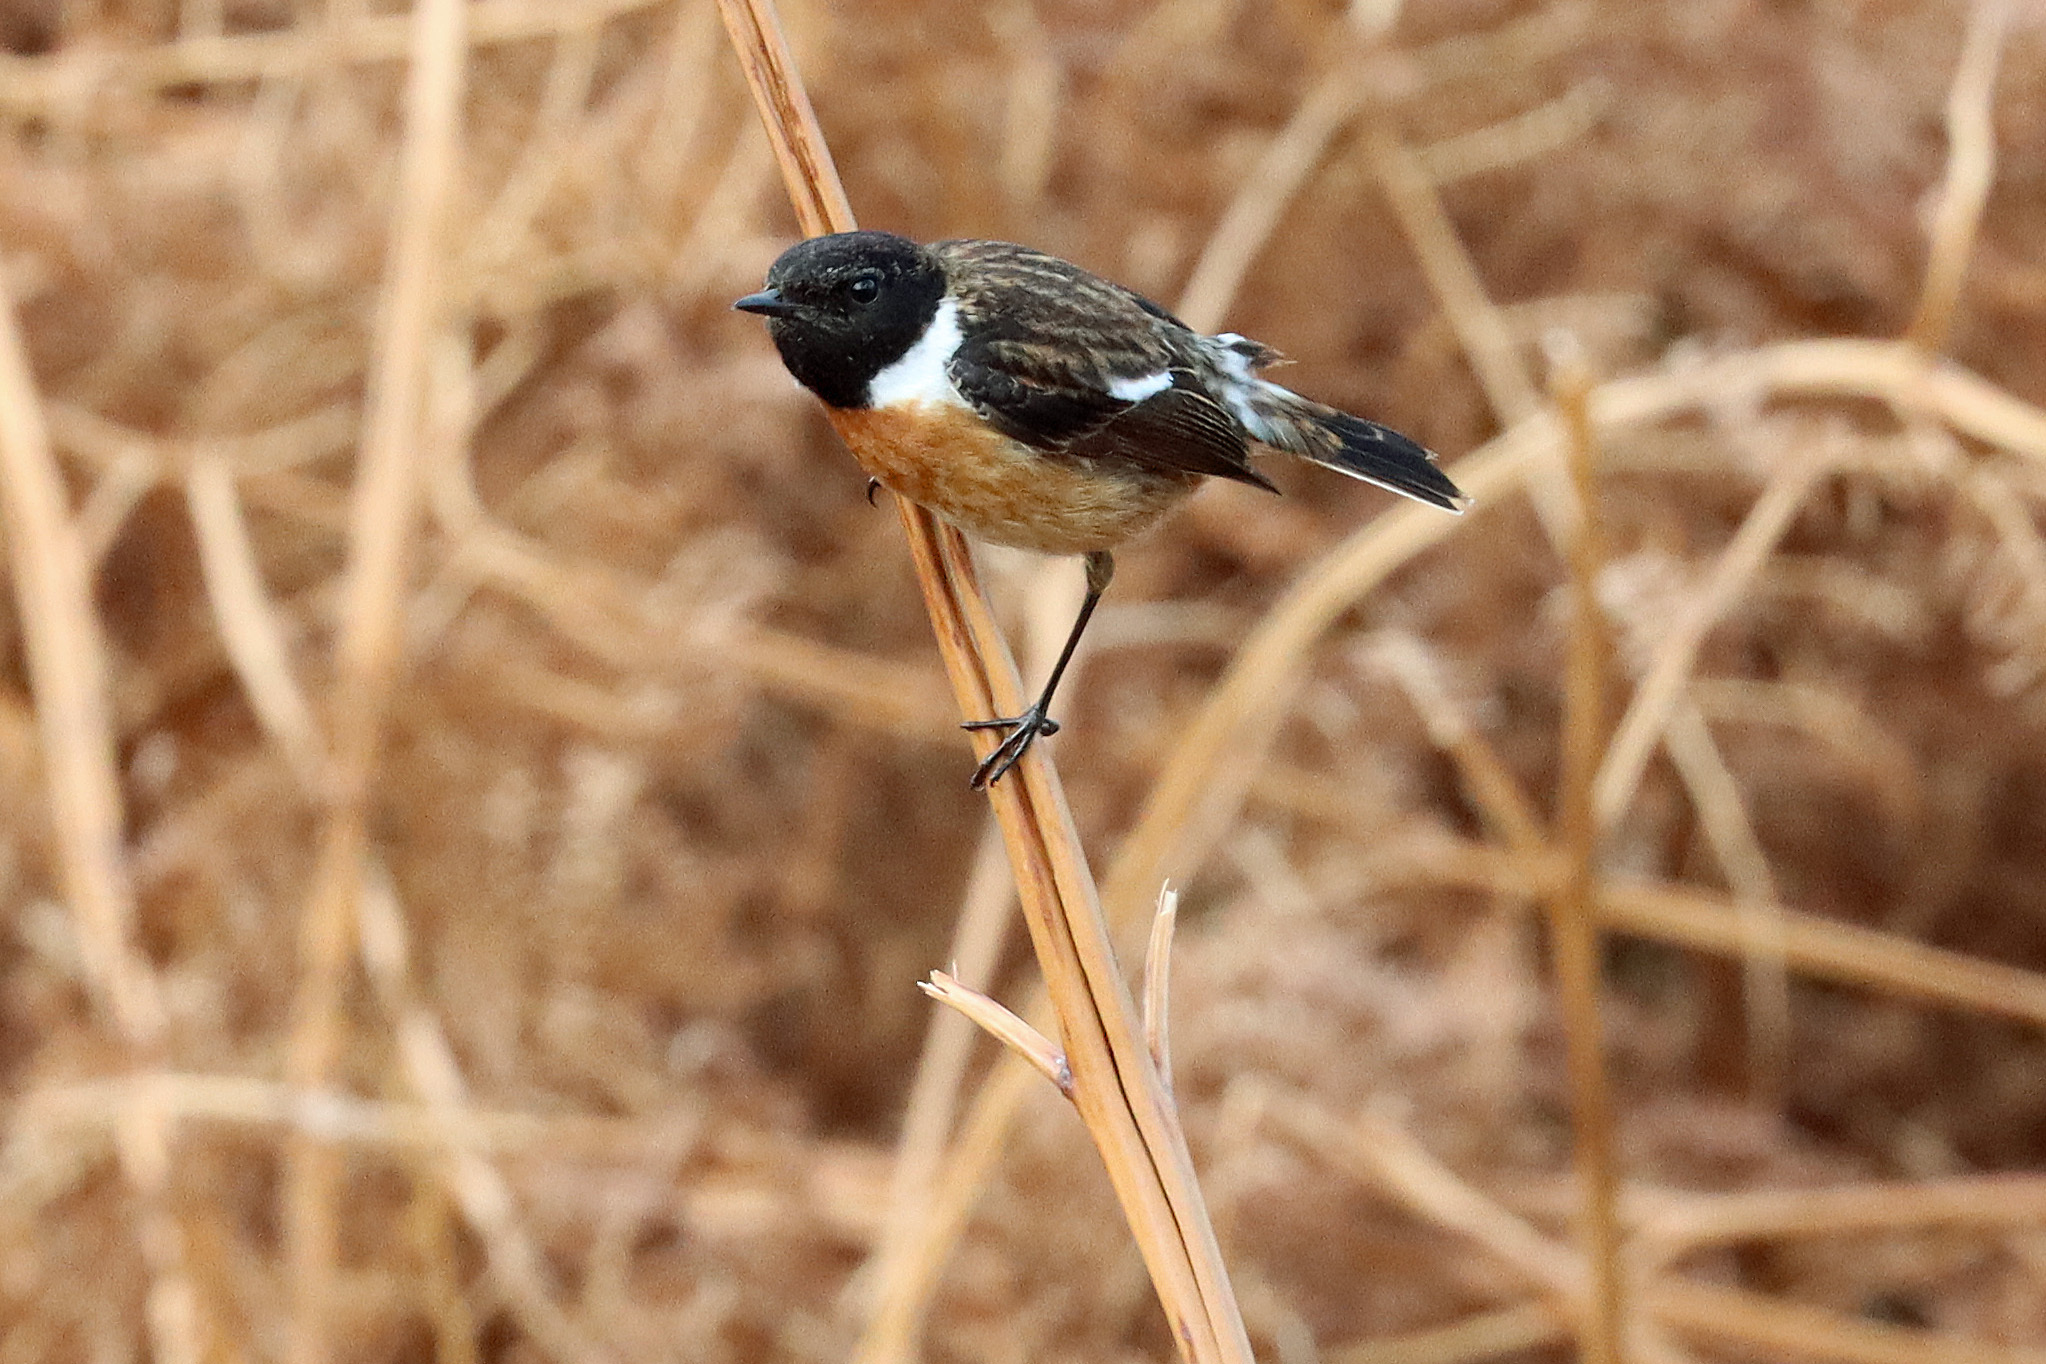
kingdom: Animalia
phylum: Chordata
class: Aves
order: Passeriformes
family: Muscicapidae
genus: Saxicola
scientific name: Saxicola rubicola
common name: European stonechat
